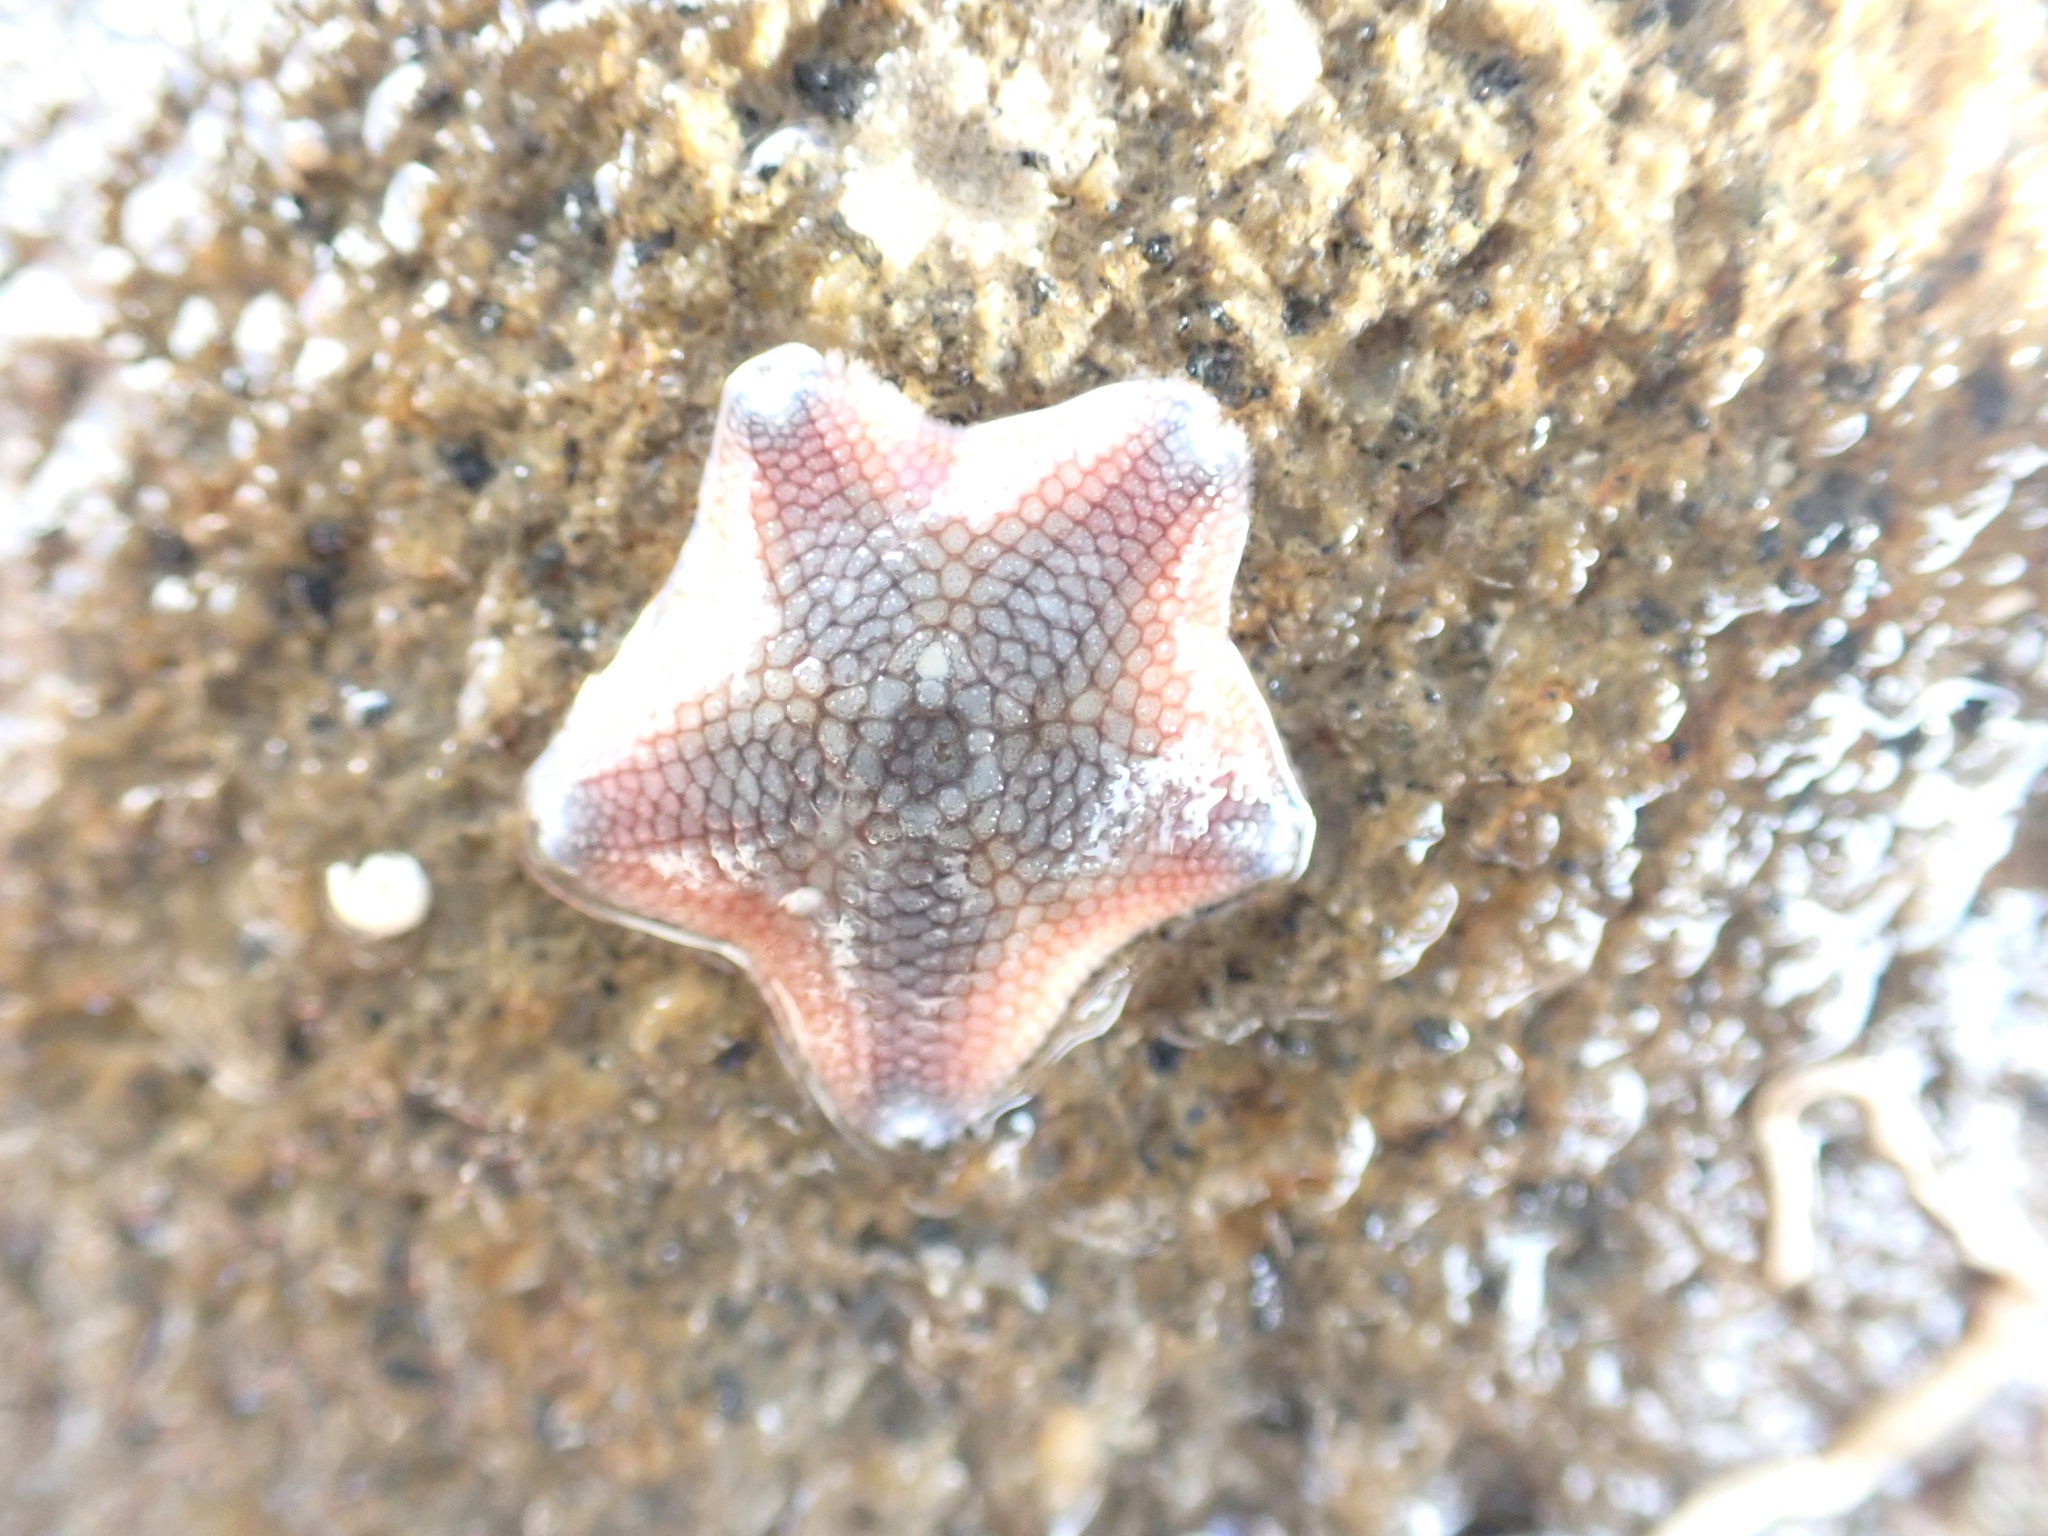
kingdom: Animalia
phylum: Echinodermata
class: Asteroidea
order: Valvatida
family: Asterinidae
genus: Patiriella
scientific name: Patiriella regularis
